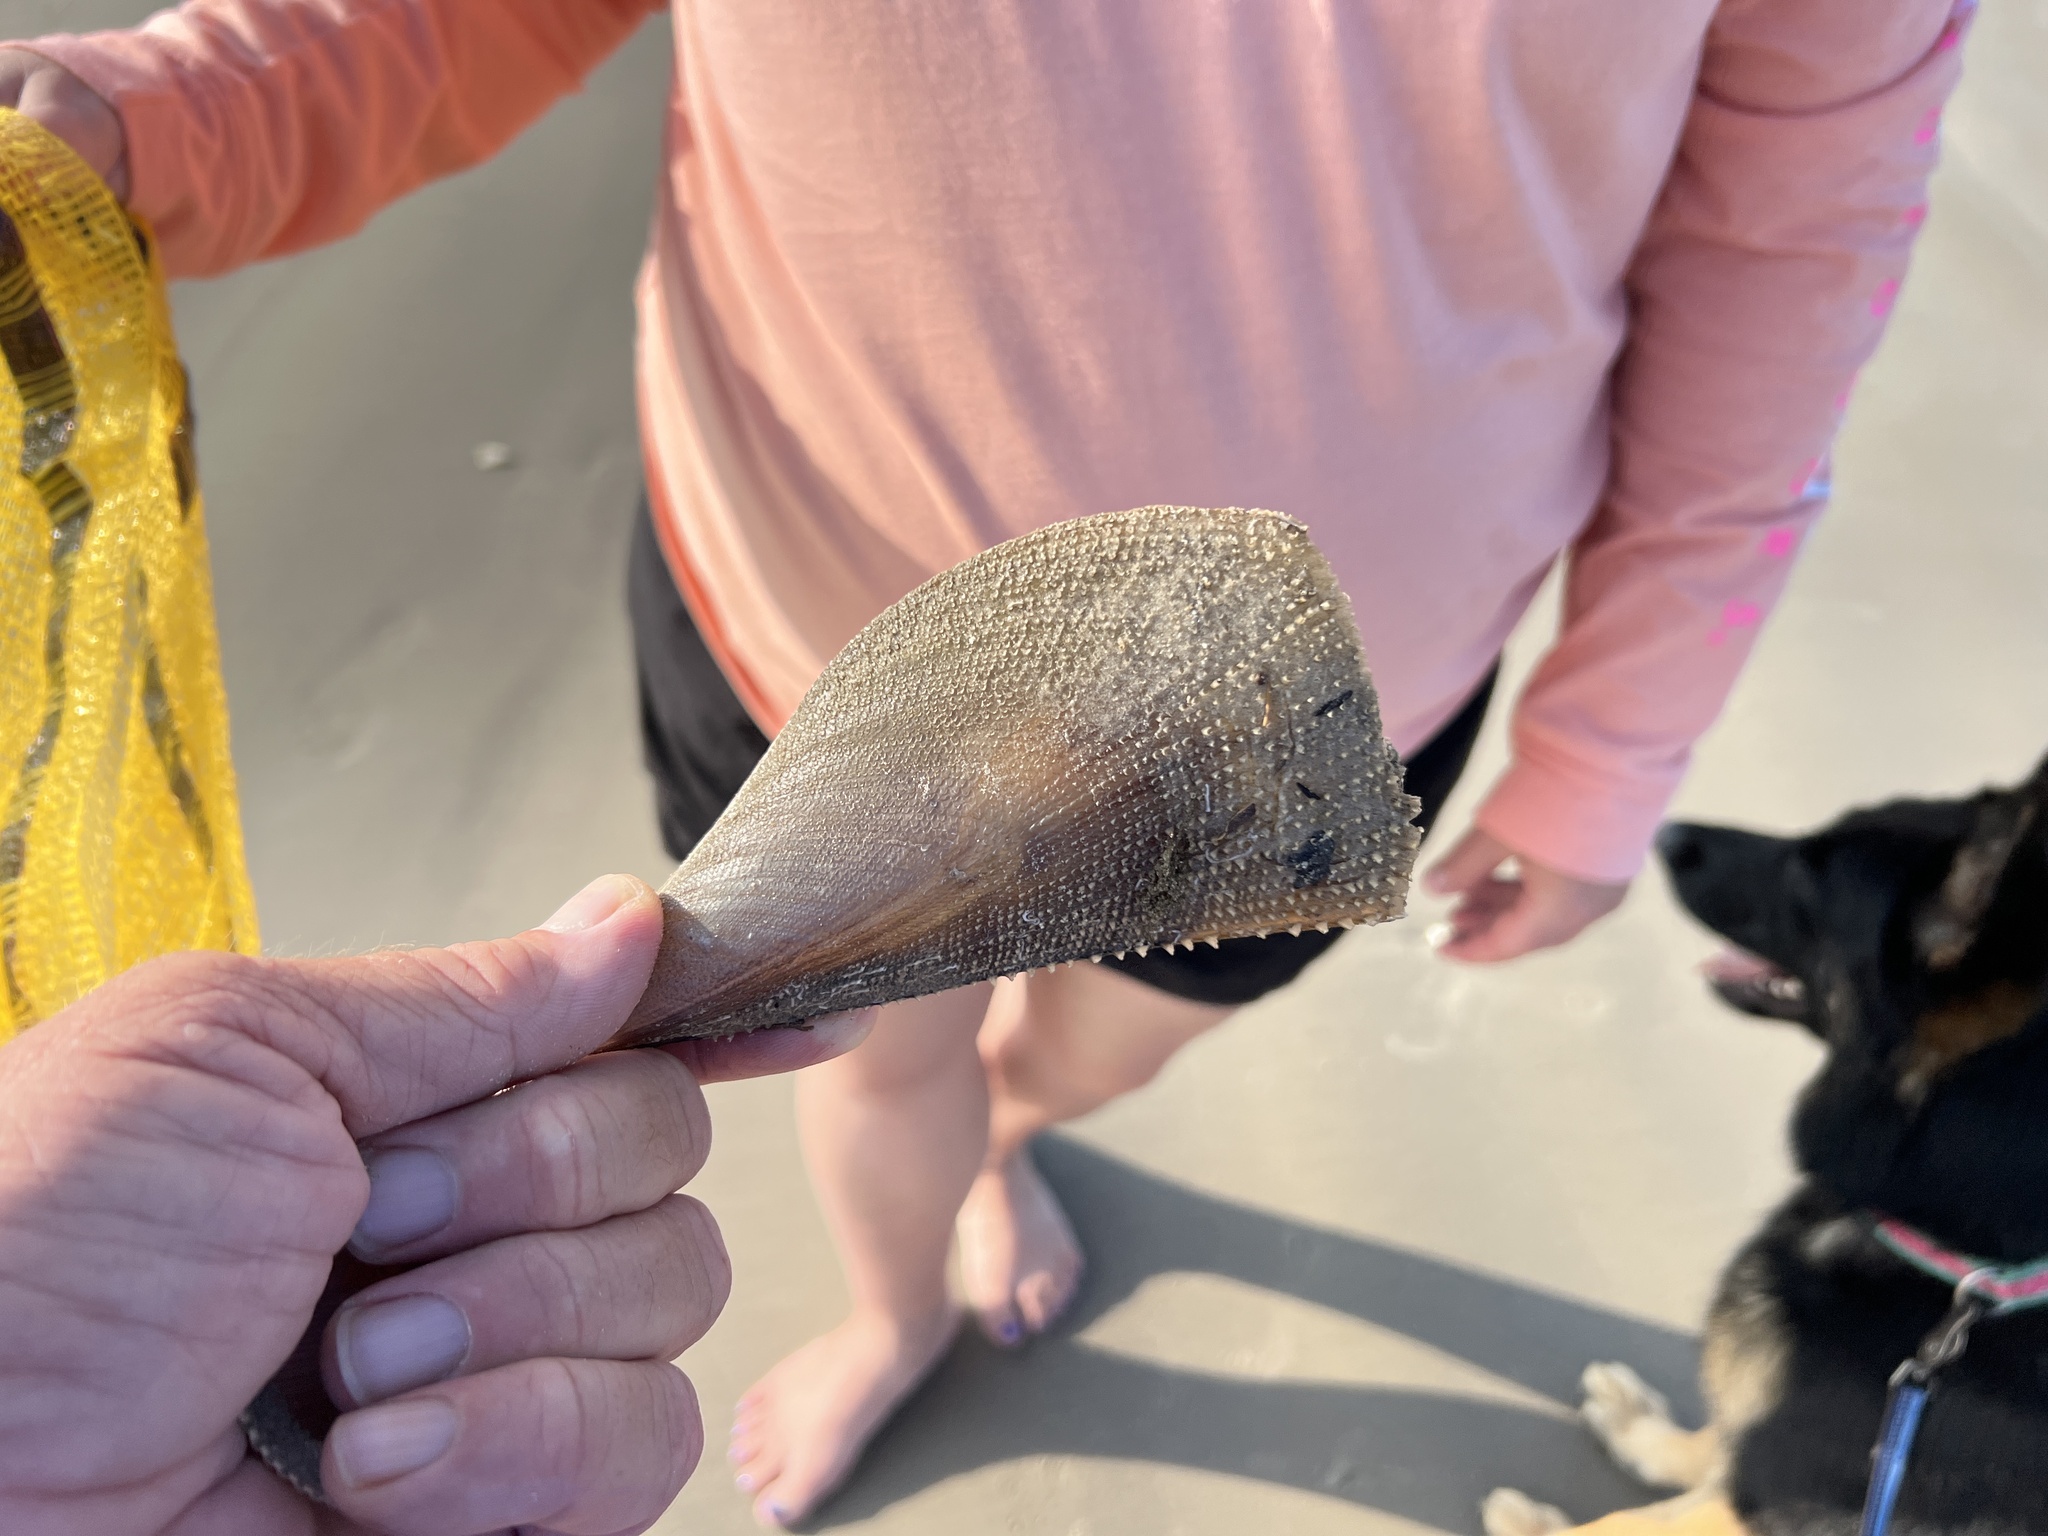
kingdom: Animalia
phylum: Mollusca
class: Bivalvia
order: Ostreida
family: Pinnidae
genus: Atrina
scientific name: Atrina serrata
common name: Saw-toothed penshell
